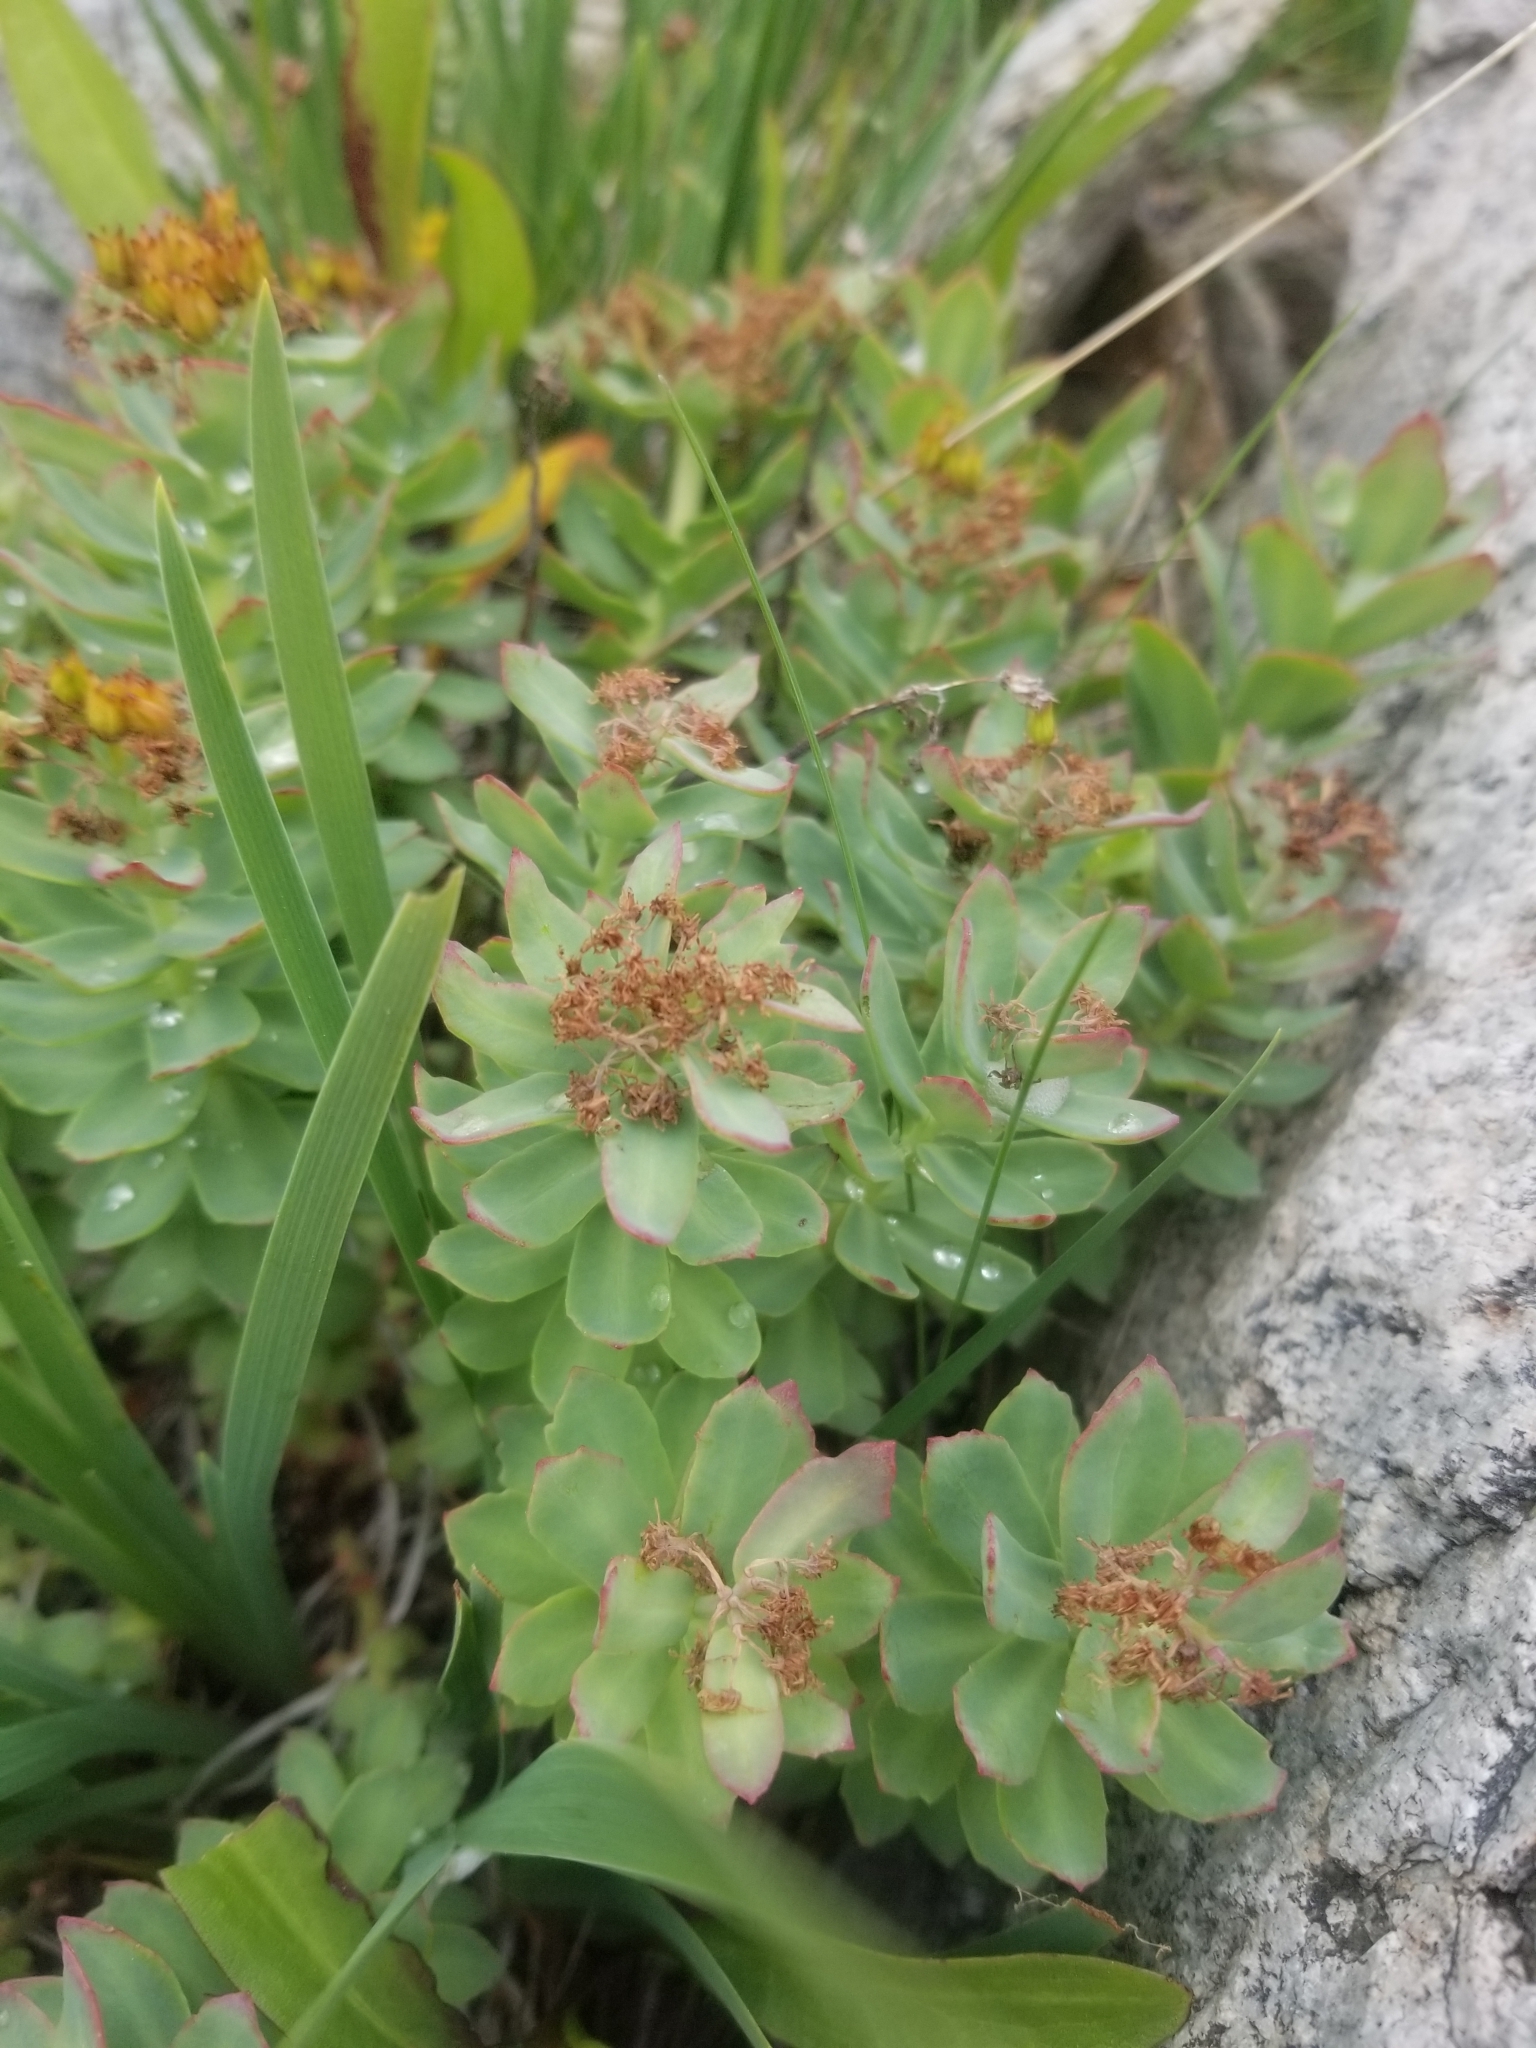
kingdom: Plantae
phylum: Tracheophyta
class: Magnoliopsida
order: Saxifragales
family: Crassulaceae
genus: Rhodiola
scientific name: Rhodiola rosea
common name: Roseroot
